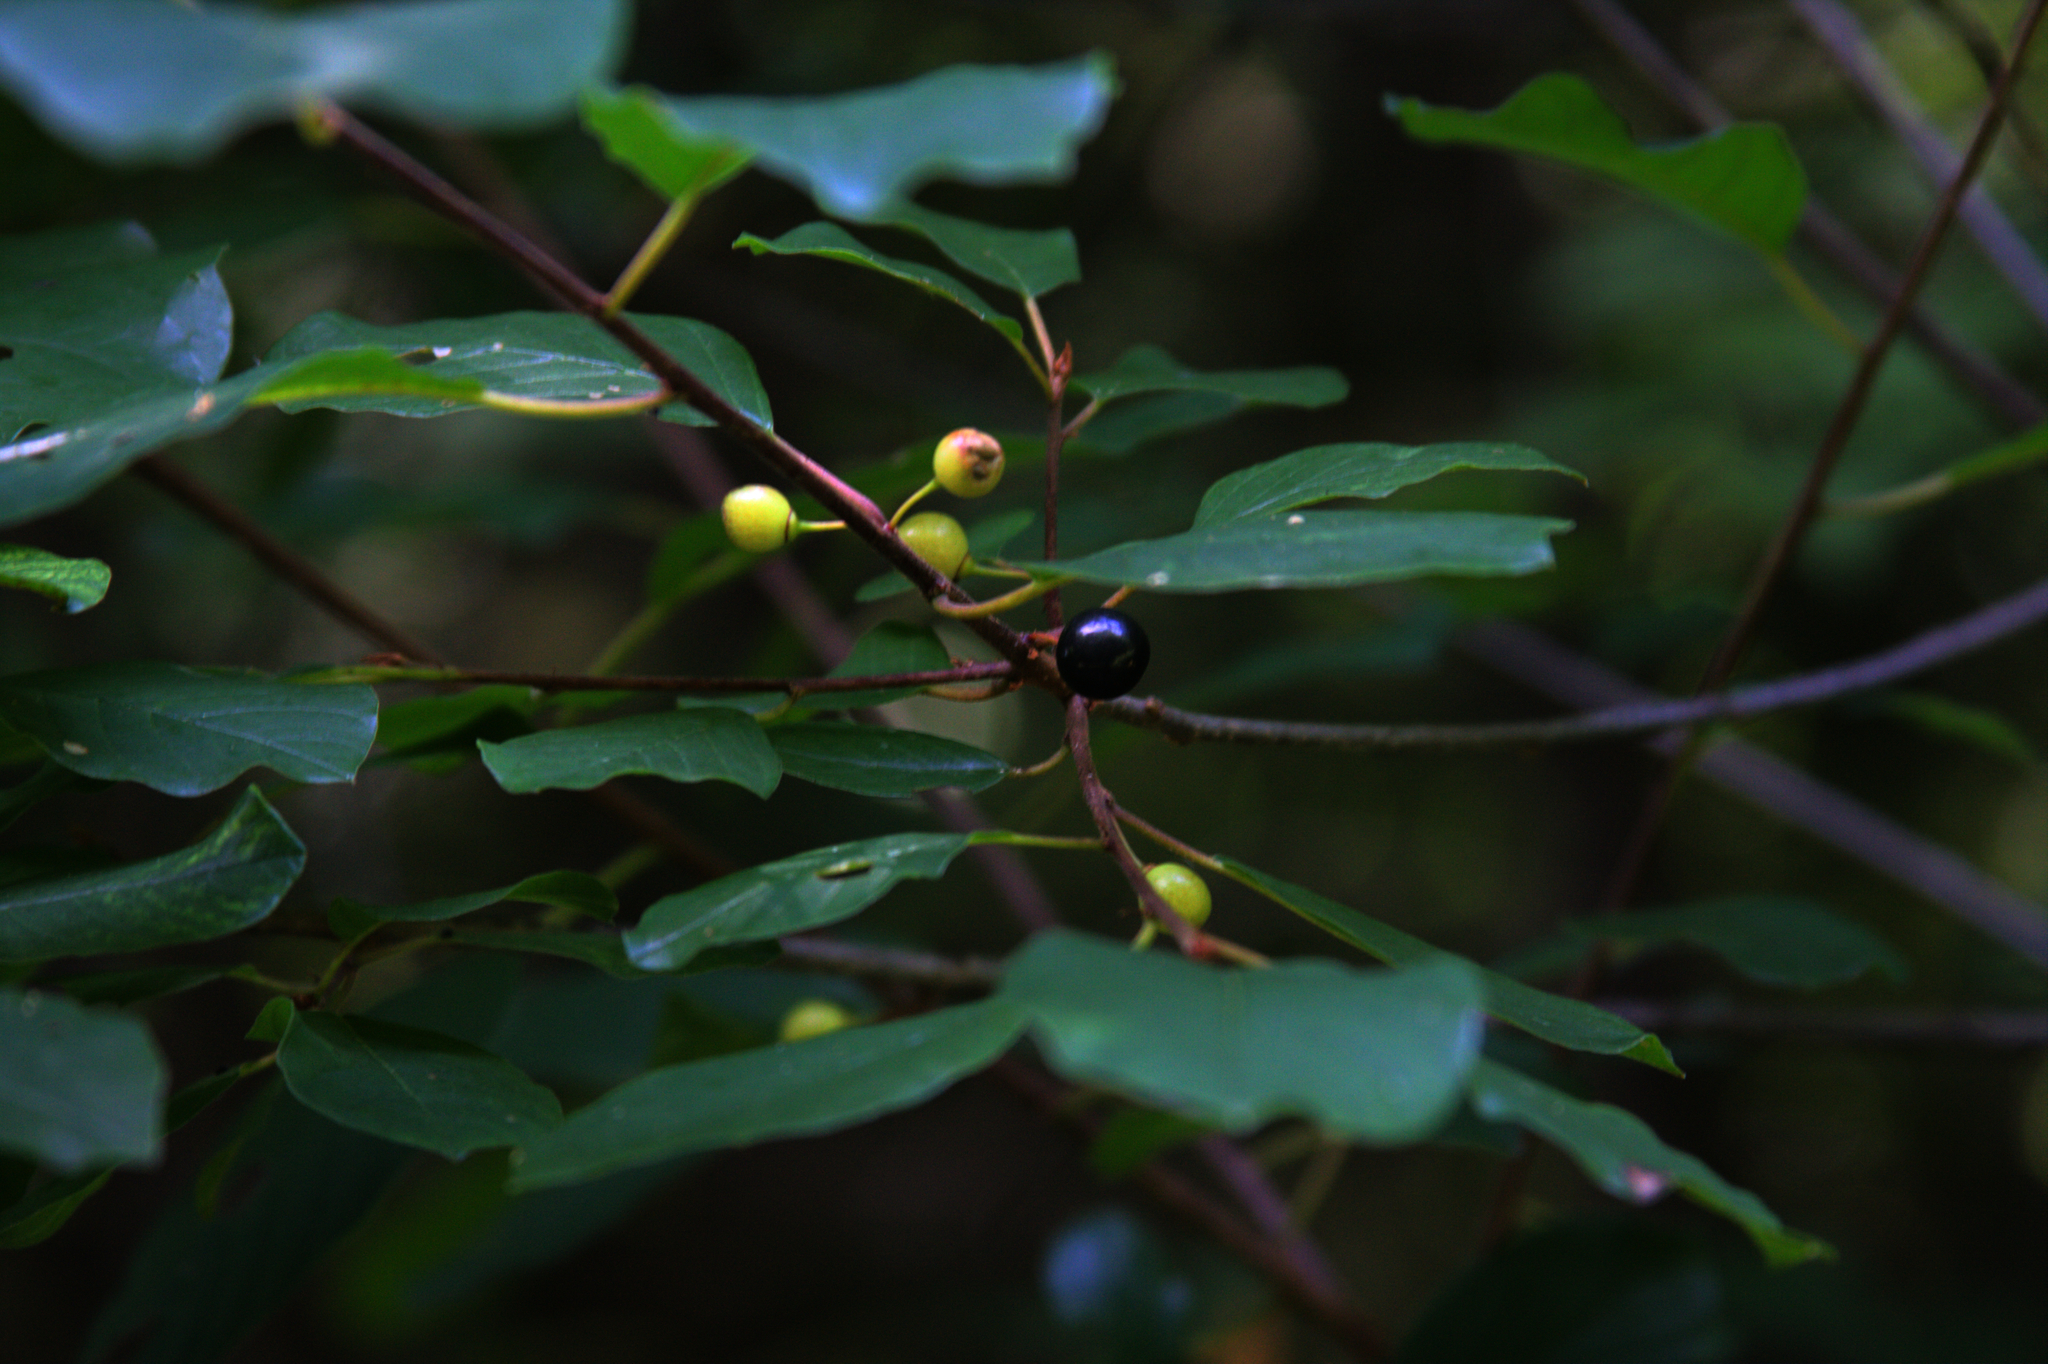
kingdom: Plantae
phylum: Tracheophyta
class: Magnoliopsida
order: Rosales
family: Rhamnaceae
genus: Frangula
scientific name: Frangula alnus
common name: Alder buckthorn
